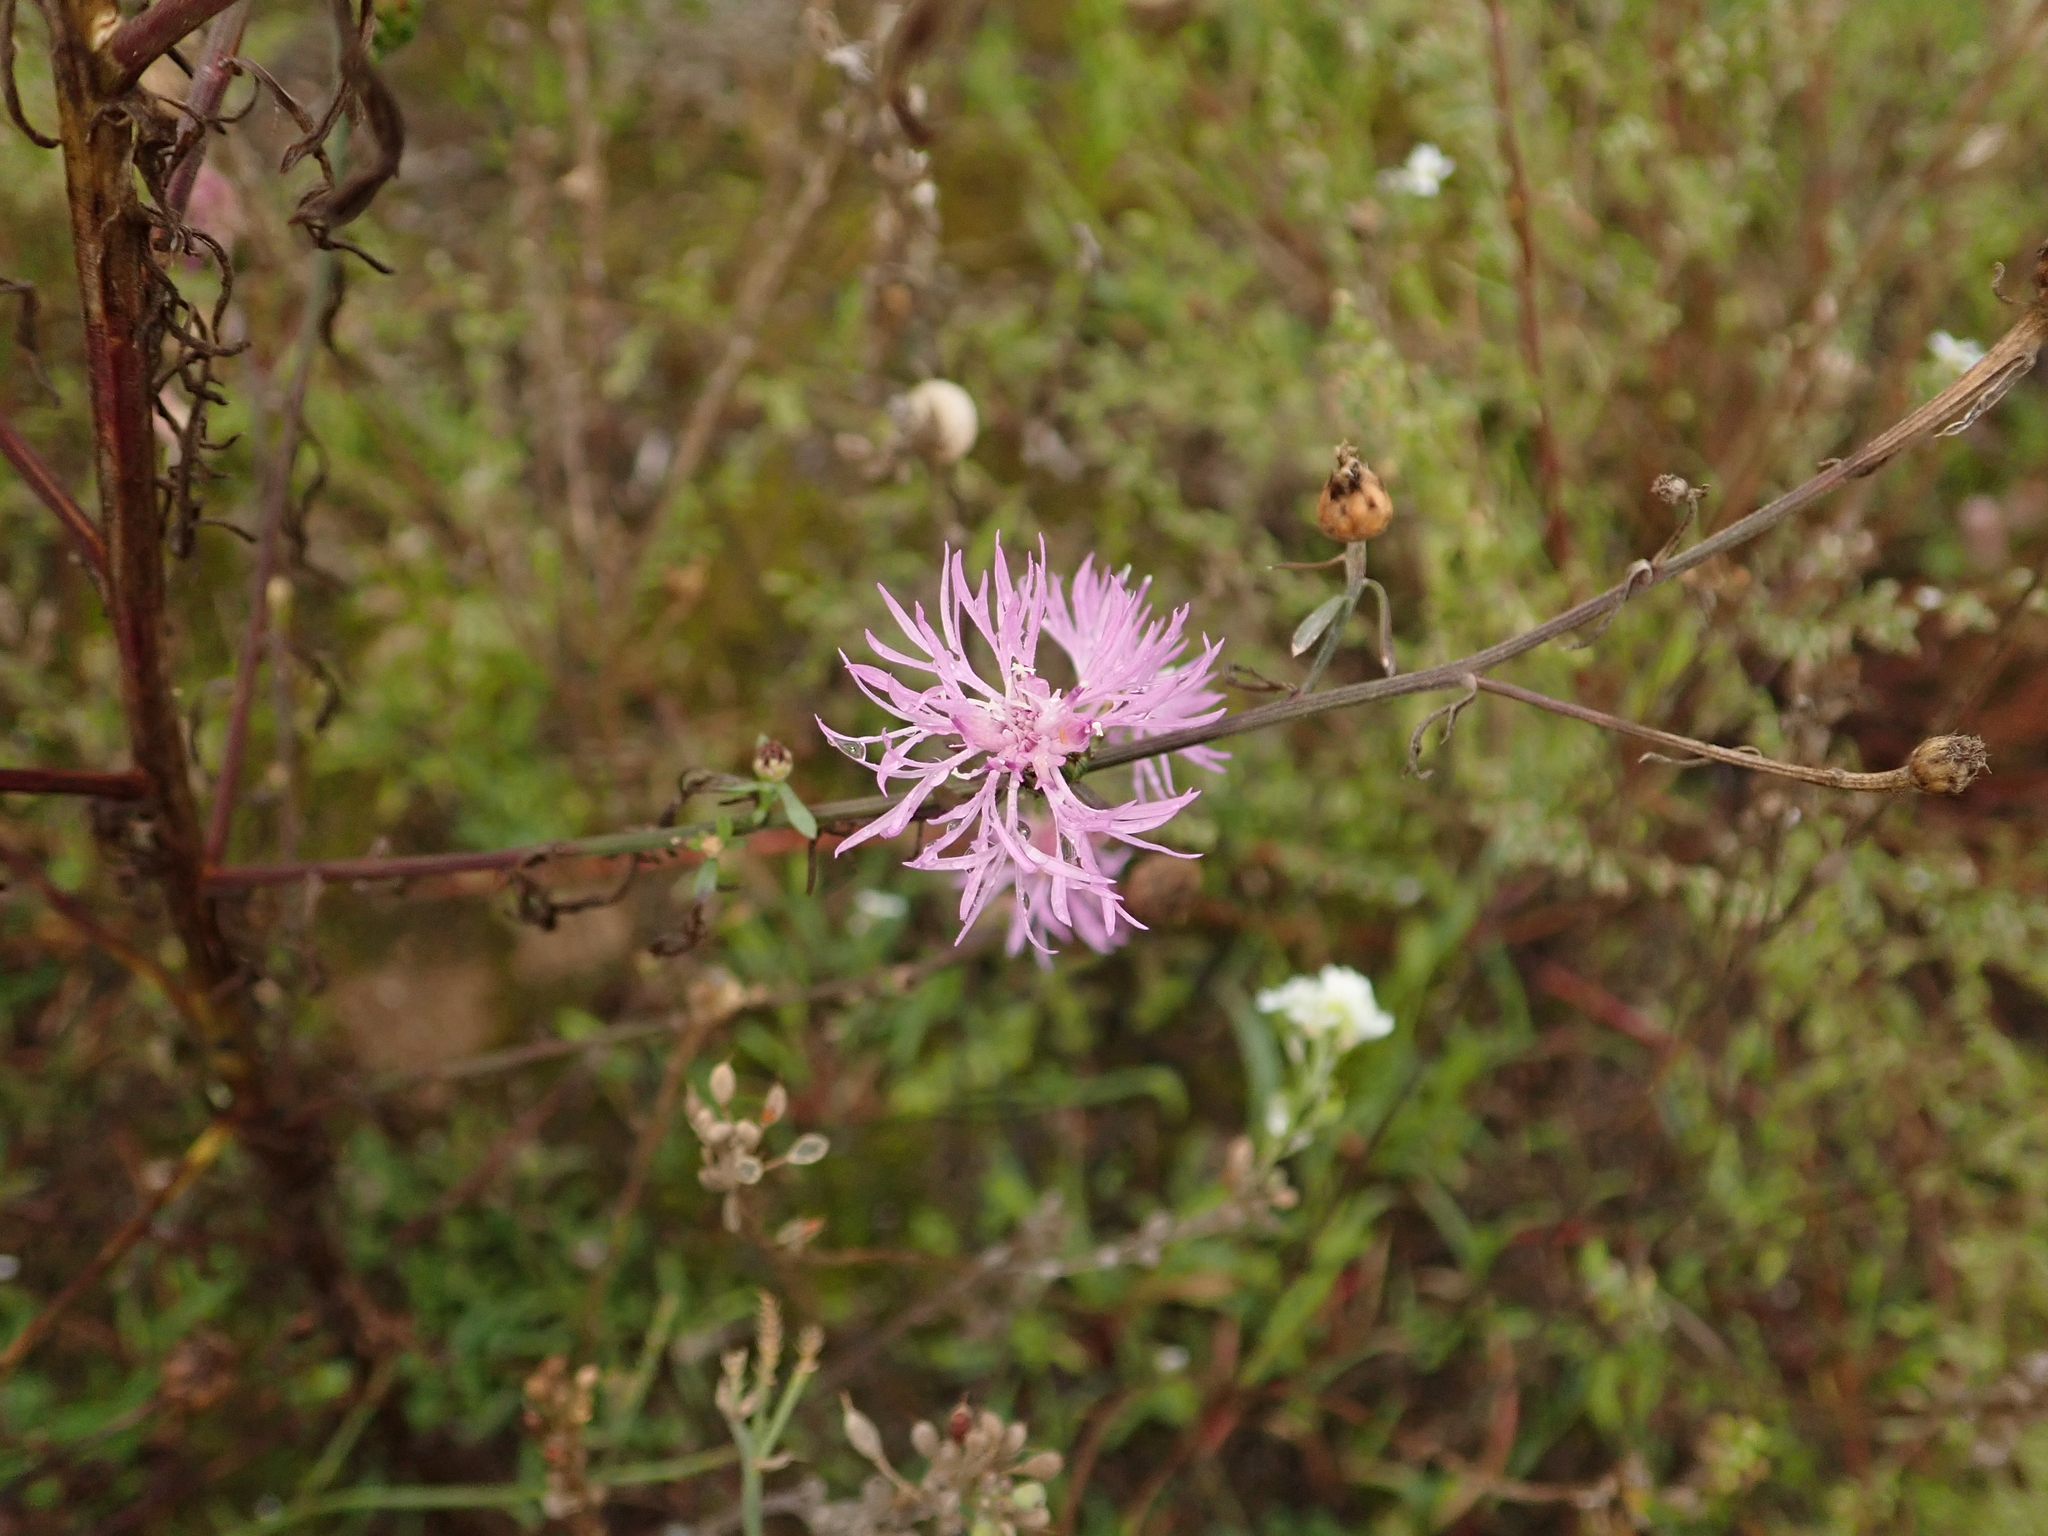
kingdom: Plantae
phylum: Tracheophyta
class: Magnoliopsida
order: Asterales
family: Asteraceae
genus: Centaurea
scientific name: Centaurea stoebe
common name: Spotted knapweed
